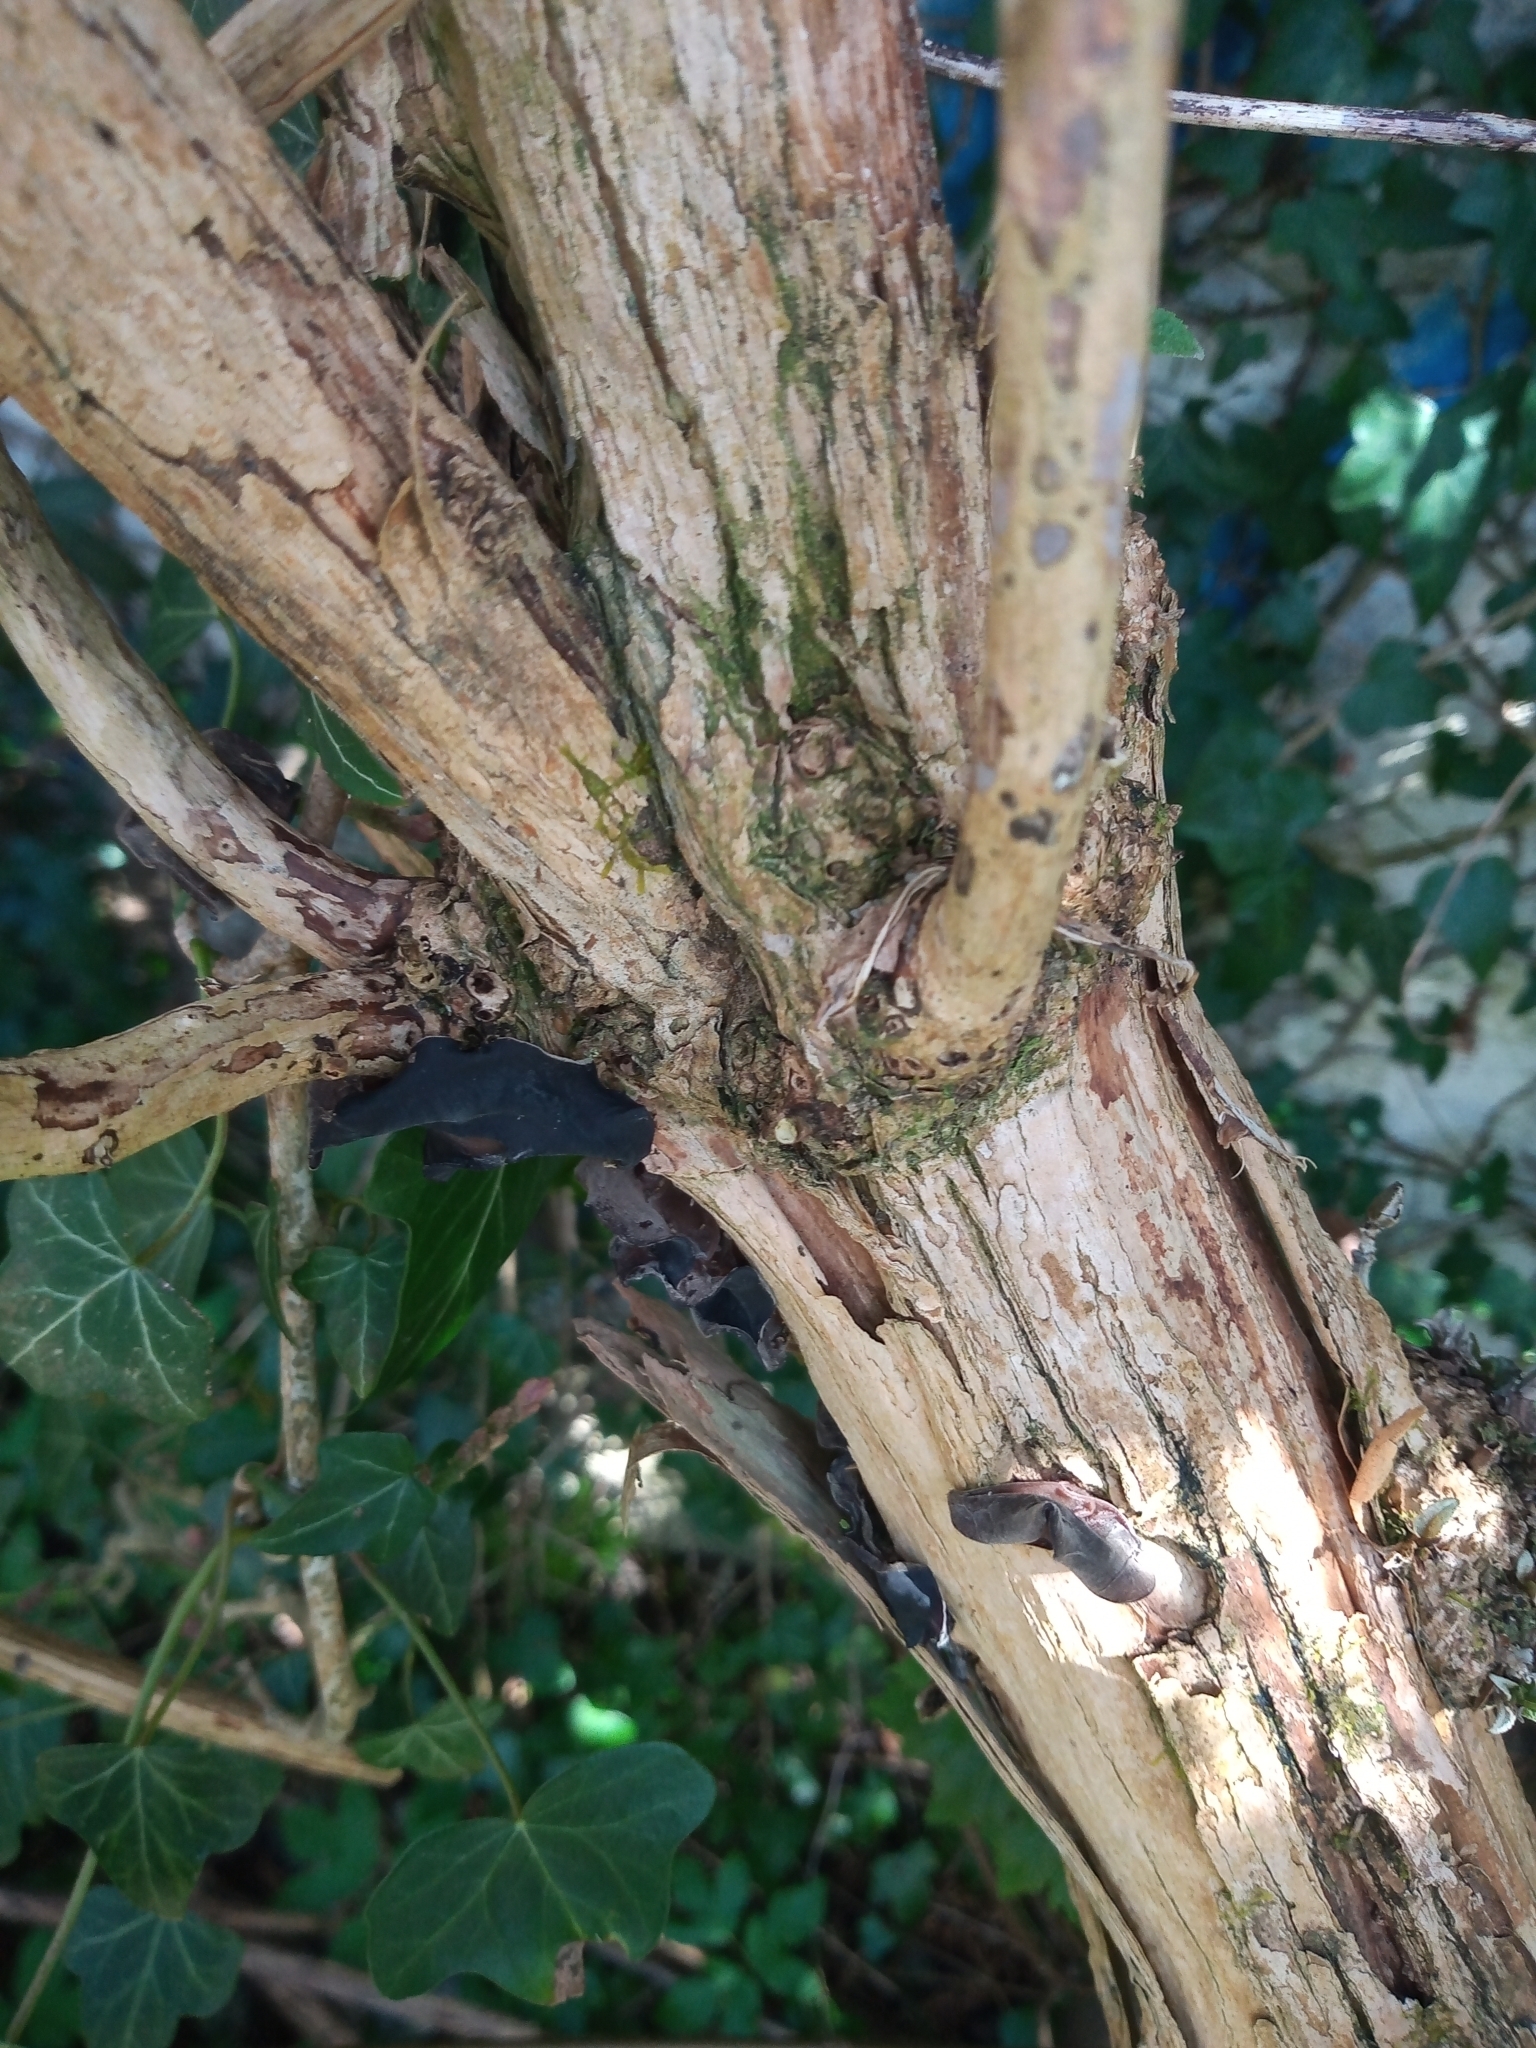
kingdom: Fungi
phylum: Basidiomycota
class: Agaricomycetes
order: Auriculariales
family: Auriculariaceae
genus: Auricularia
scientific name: Auricularia auricula-judae
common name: Jelly ear
